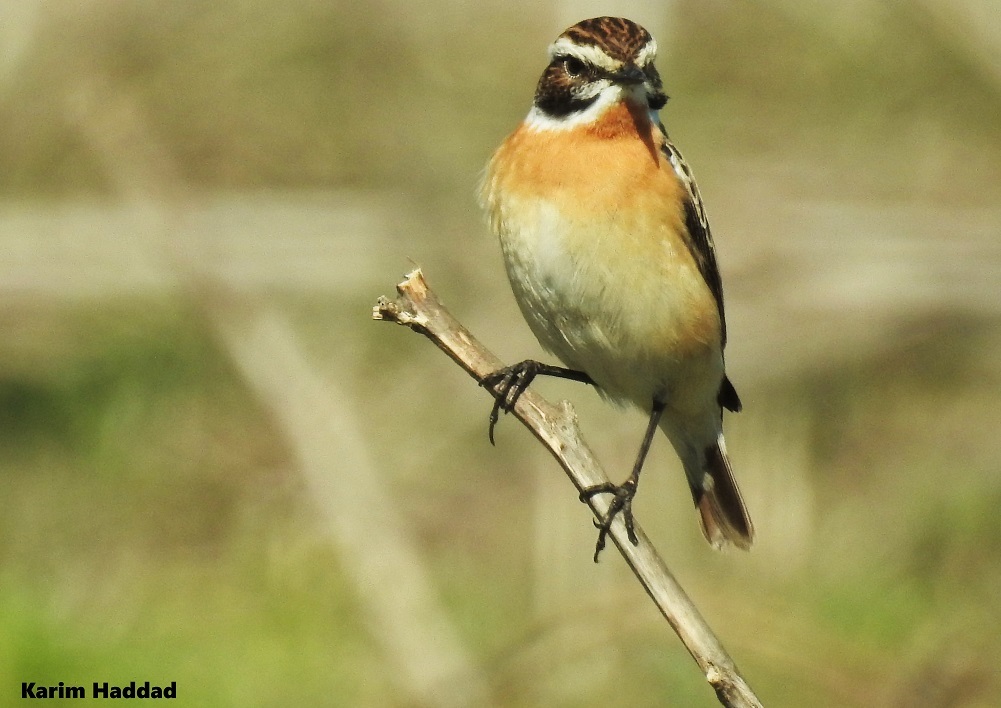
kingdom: Animalia
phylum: Chordata
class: Aves
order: Passeriformes
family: Muscicapidae
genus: Saxicola
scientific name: Saxicola rubetra
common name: Whinchat
